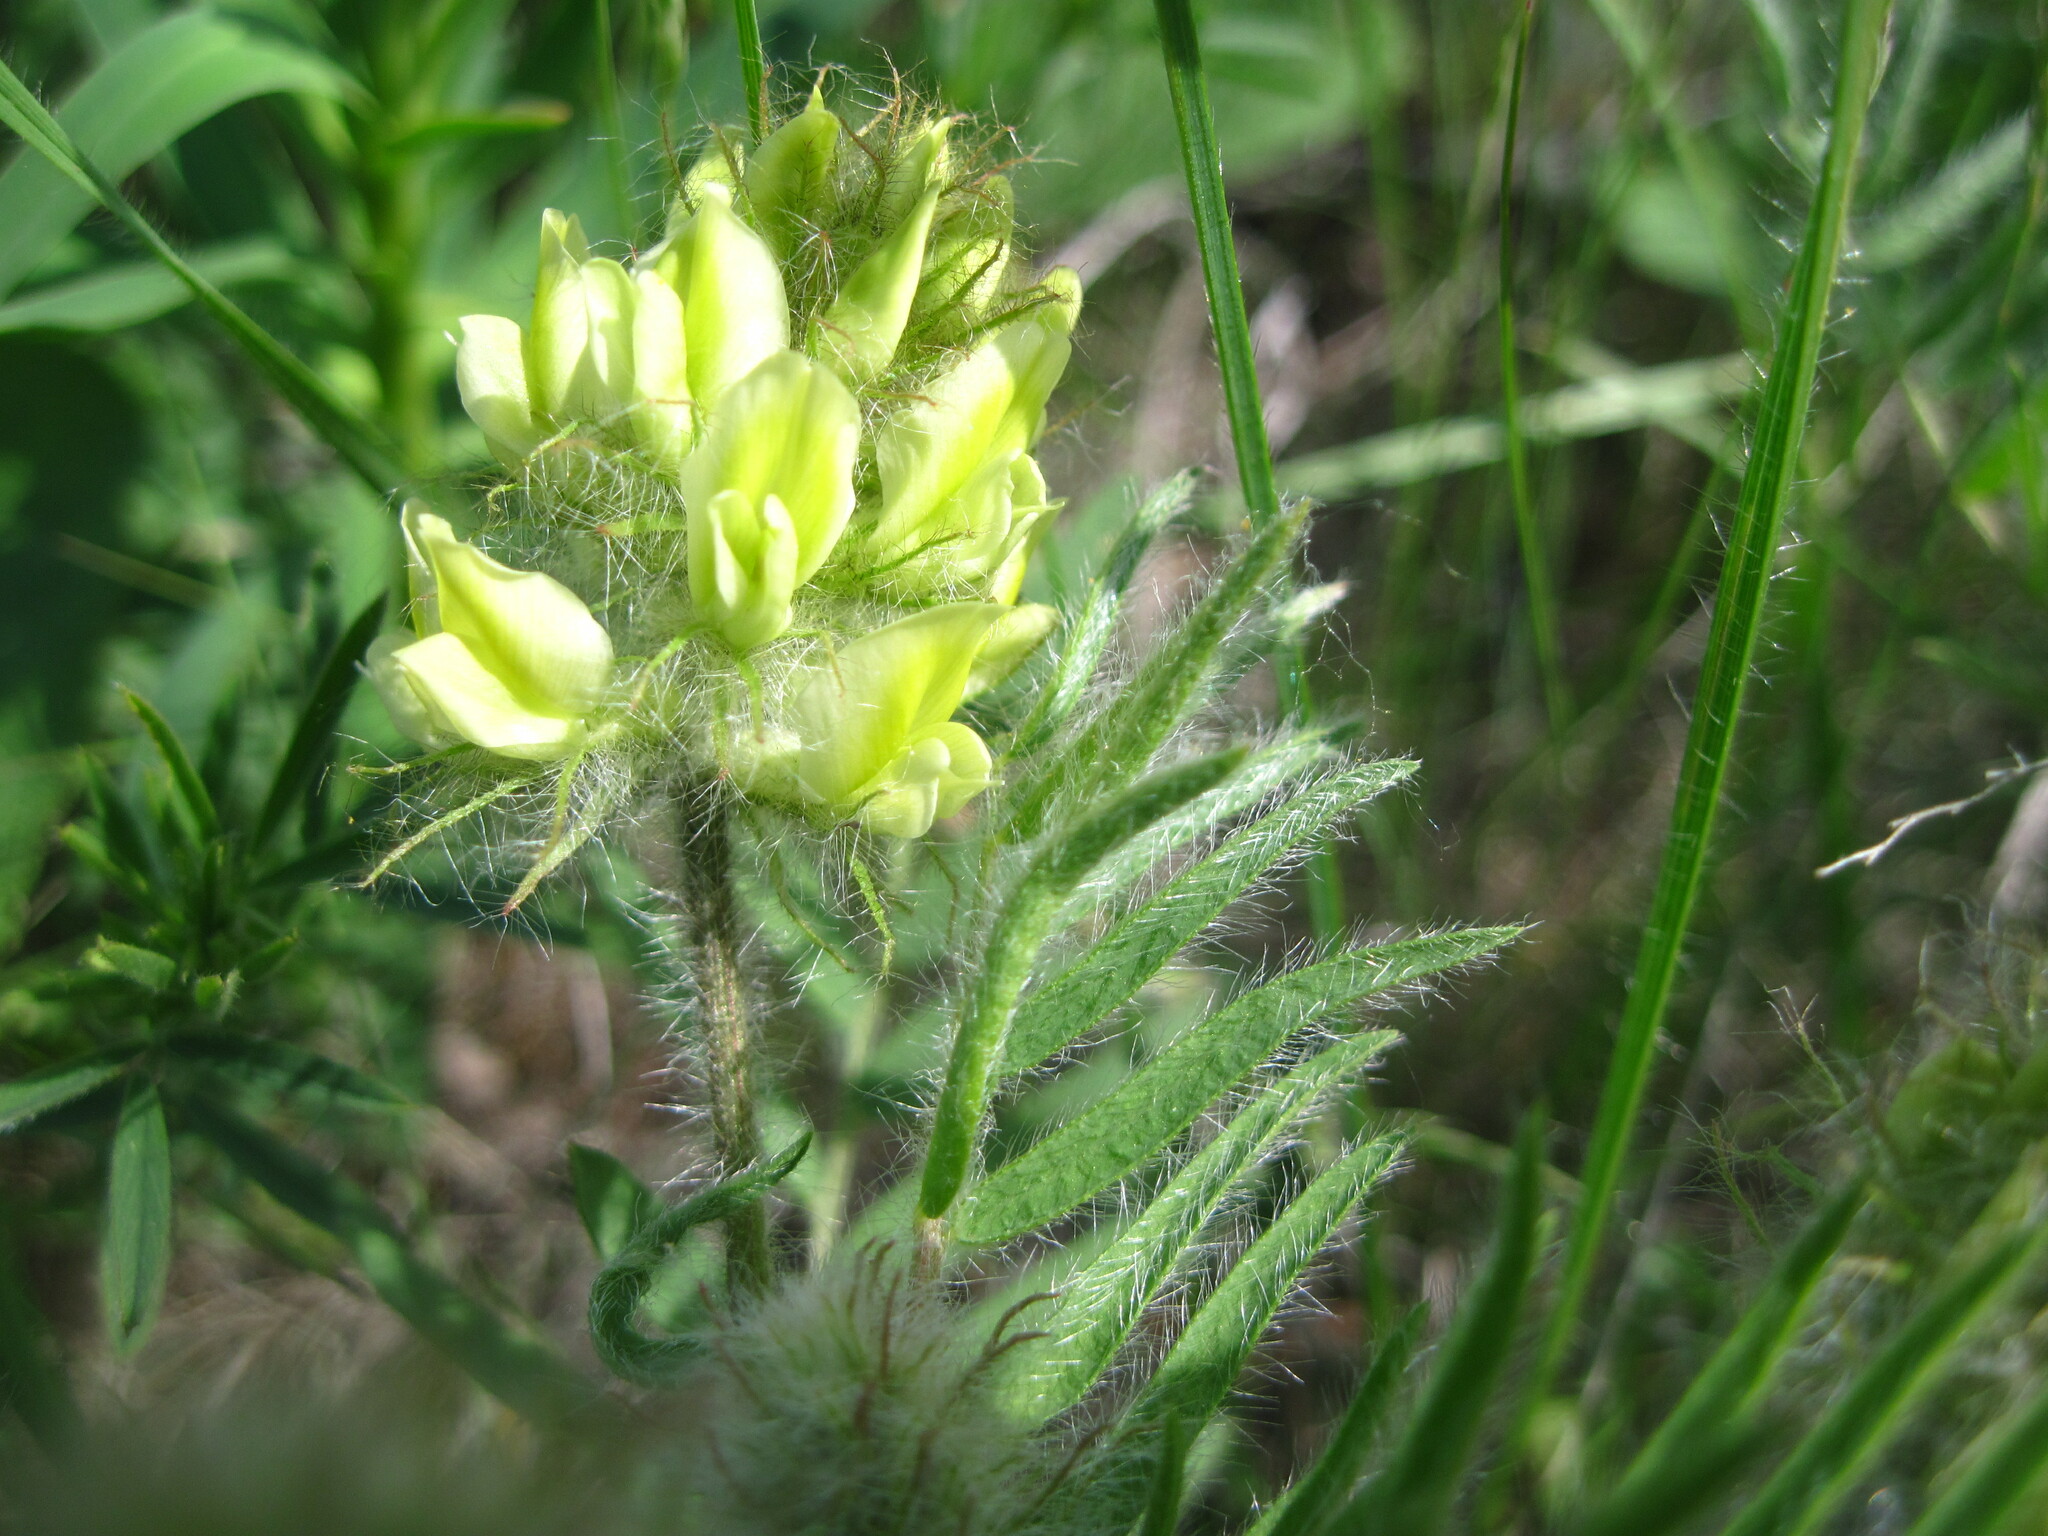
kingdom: Plantae
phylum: Tracheophyta
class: Magnoliopsida
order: Fabales
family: Fabaceae
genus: Oxytropis
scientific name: Oxytropis pilosa
